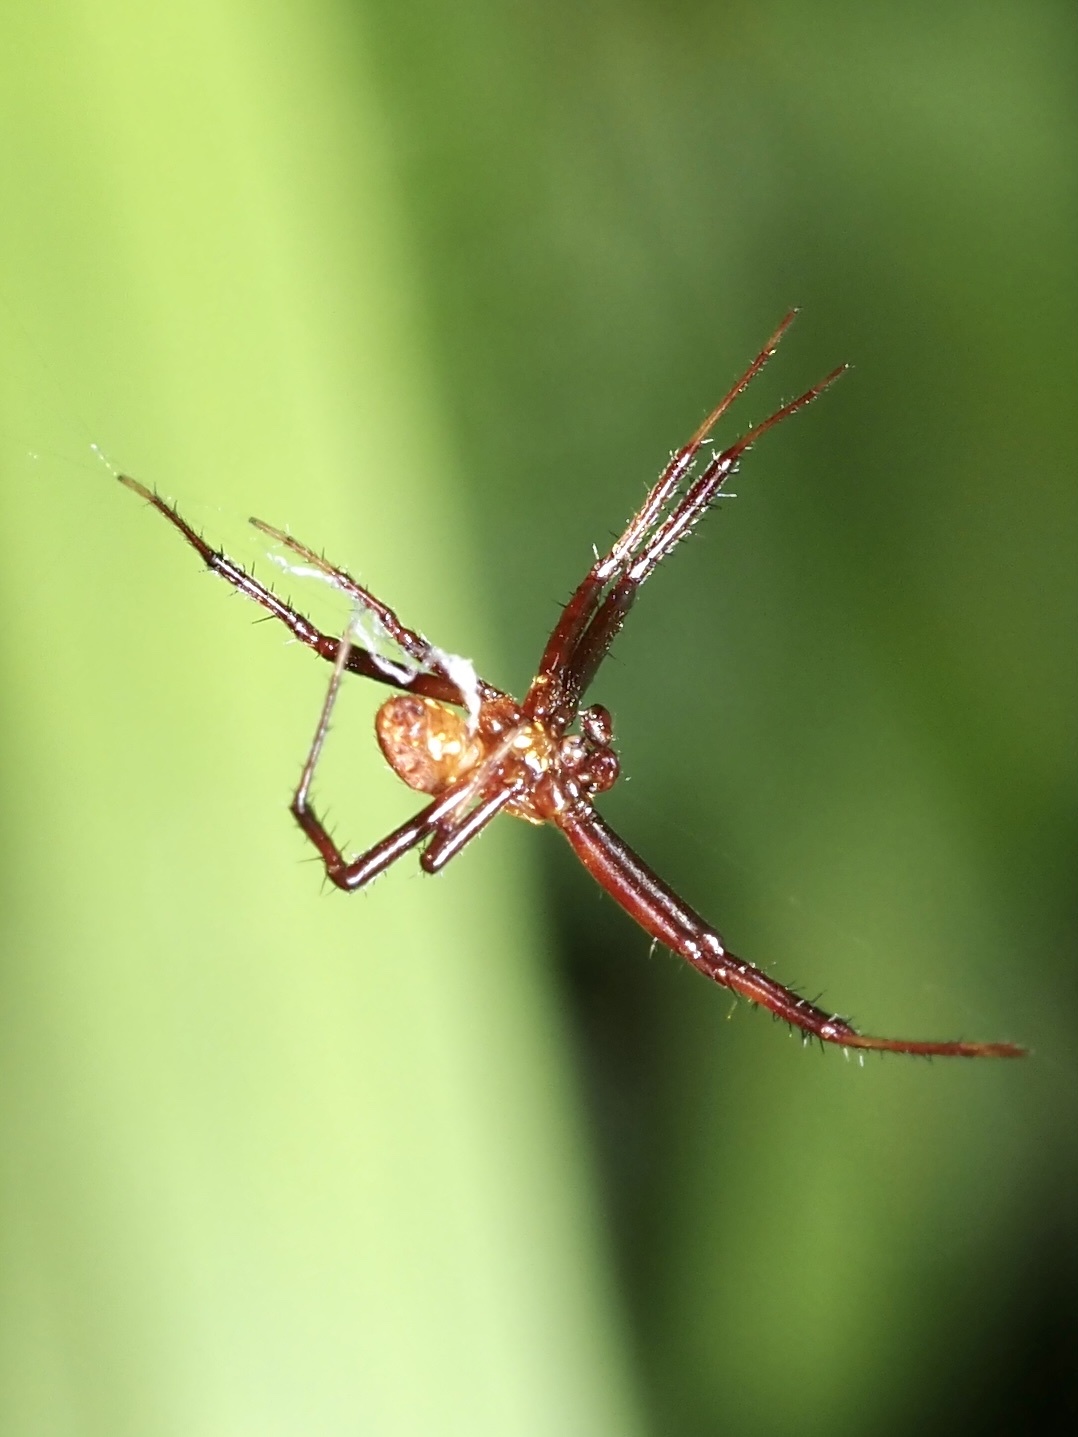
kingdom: Animalia
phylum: Arthropoda
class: Arachnida
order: Araneae
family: Araneidae
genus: Gea
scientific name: Gea heptagon
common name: Orb weavers
